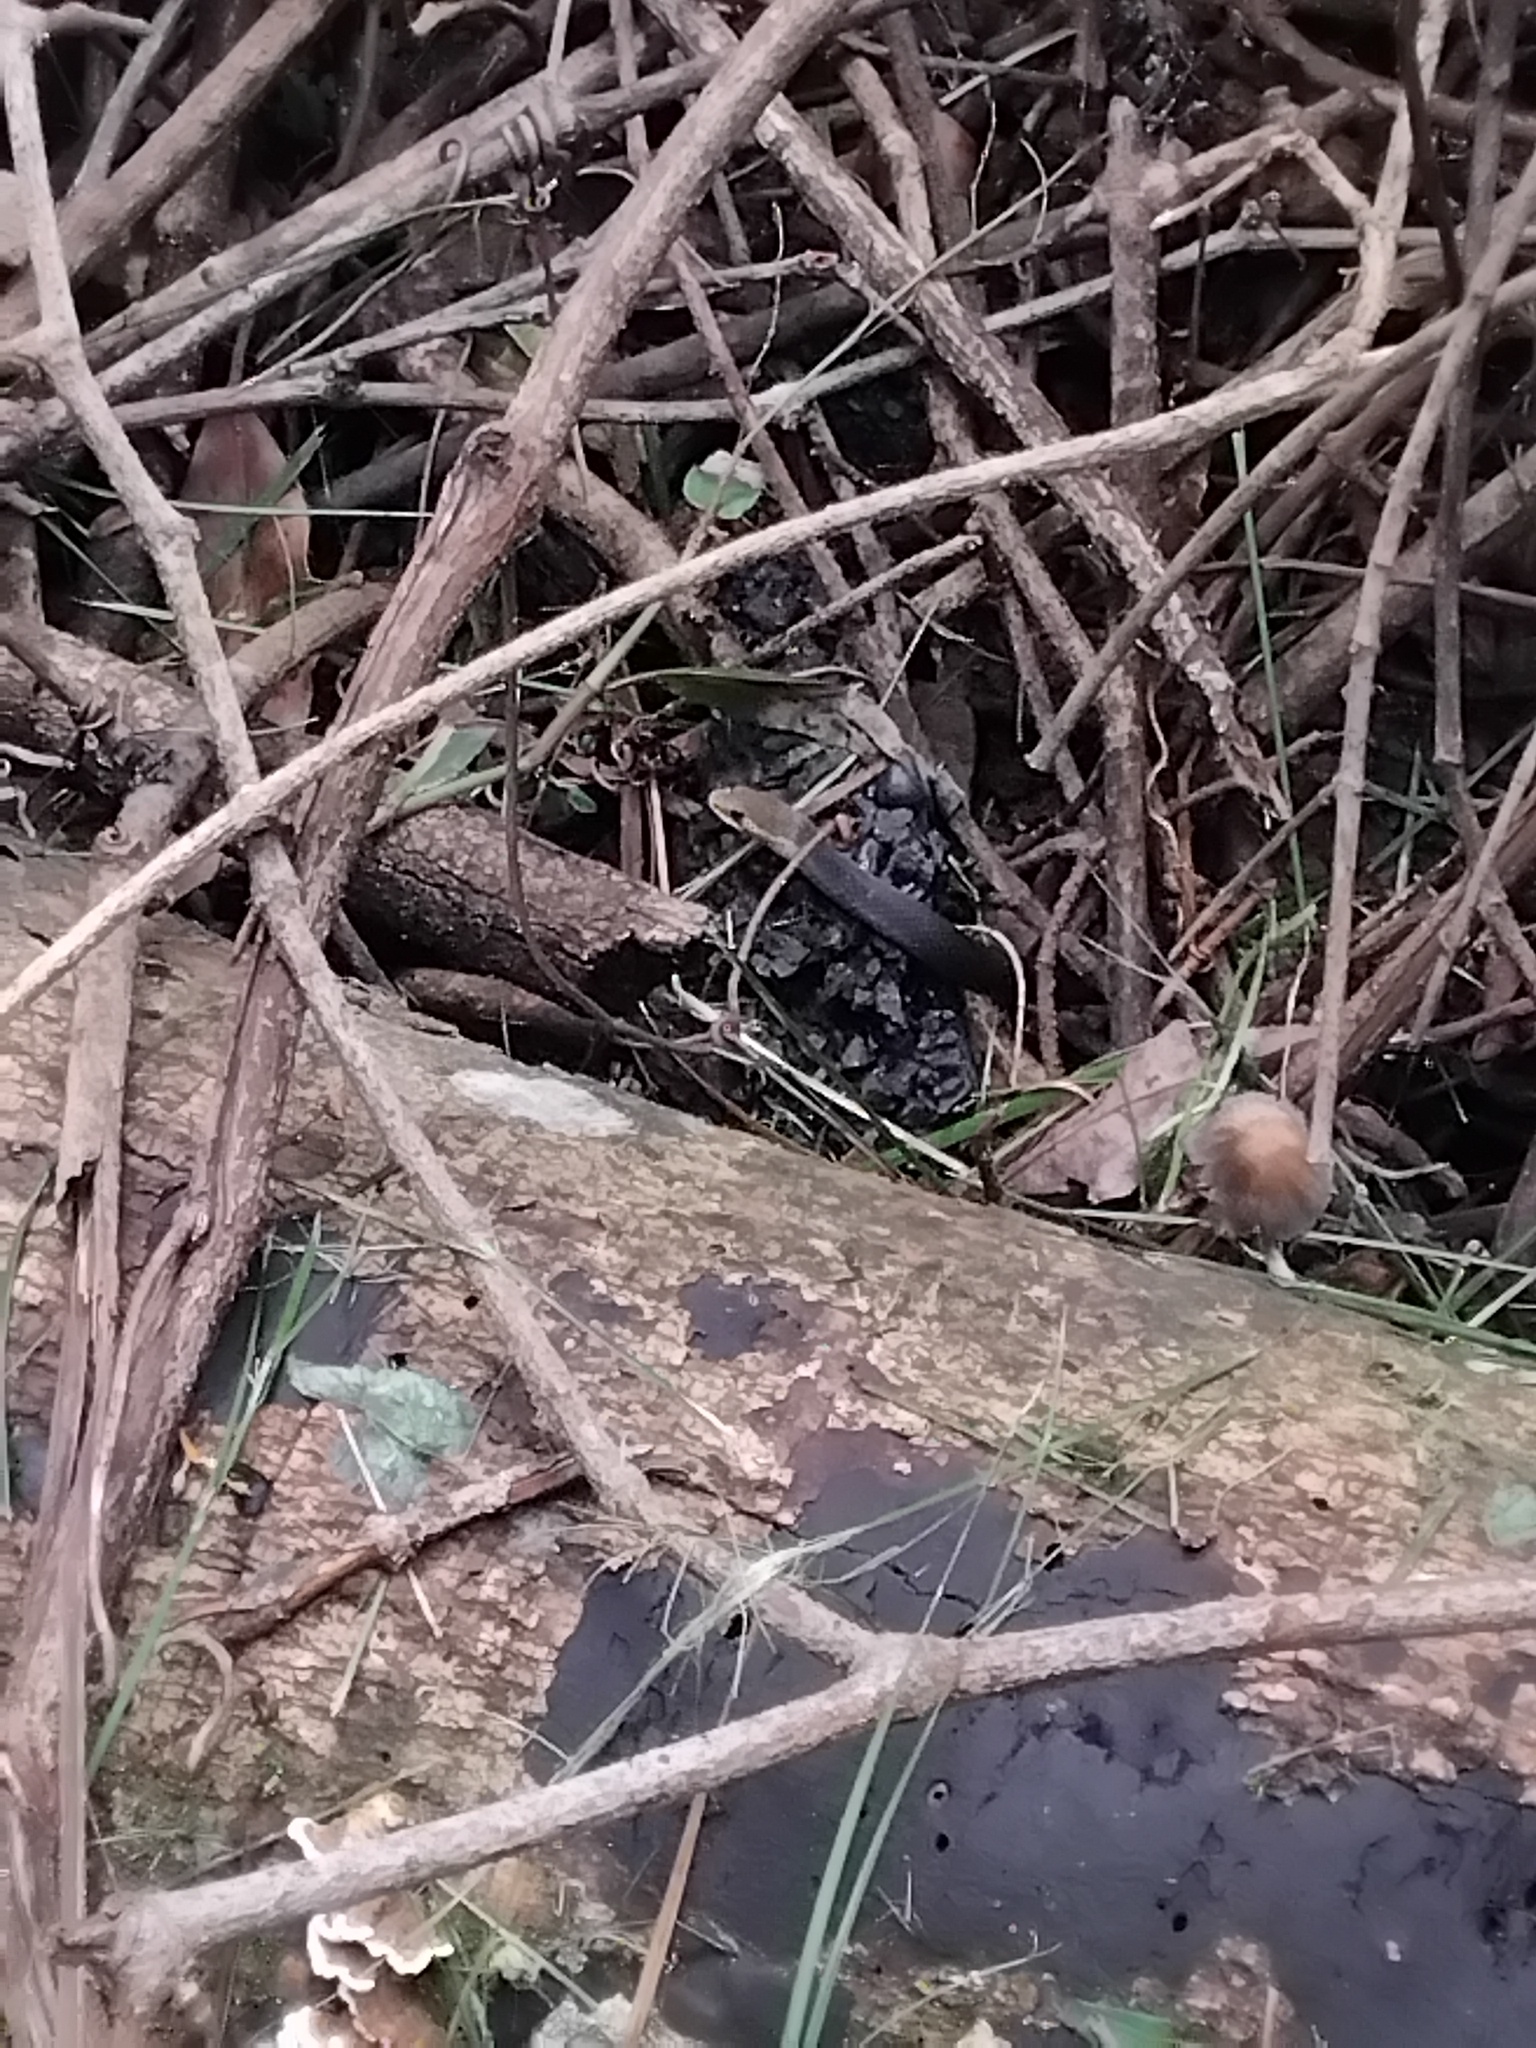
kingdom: Animalia
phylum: Chordata
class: Squamata
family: Elapidae
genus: Hemiaspis
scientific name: Hemiaspis signata
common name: Black-bellied swamp snake
